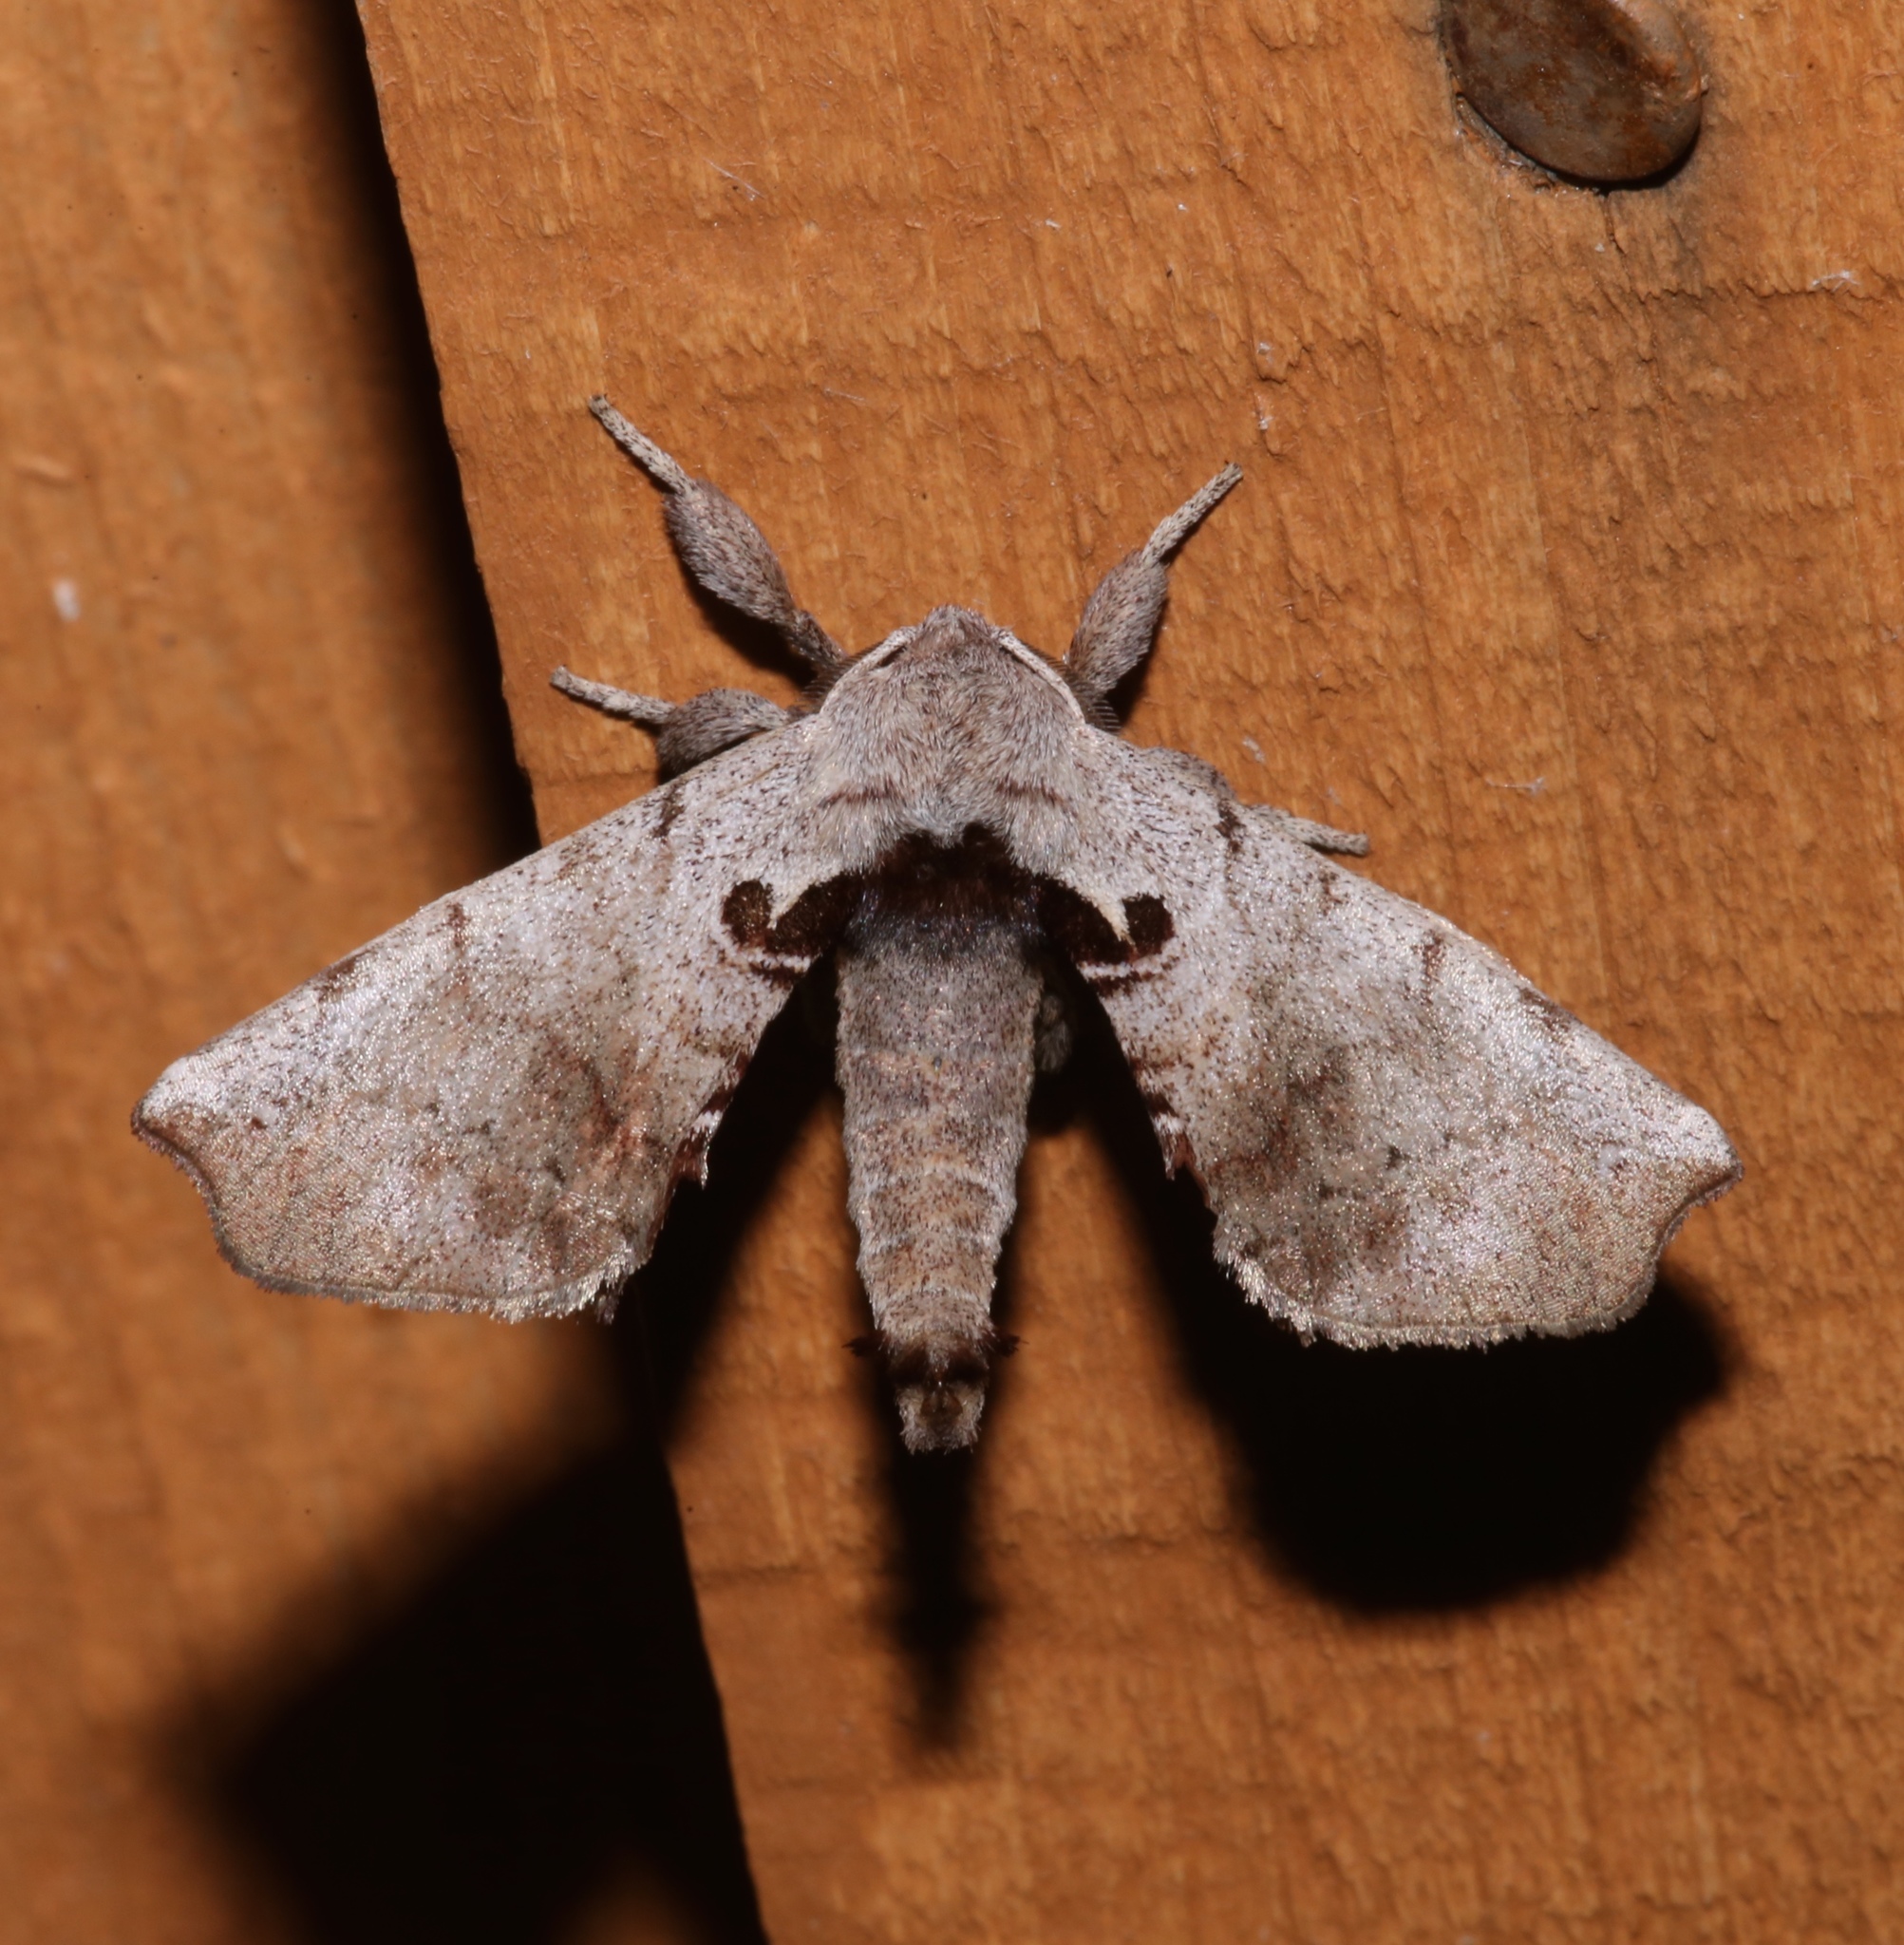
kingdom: Animalia
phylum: Arthropoda
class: Insecta
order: Lepidoptera
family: Apatelodidae
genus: Hygrochroa
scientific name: Hygrochroa Apatelodes torrefacta
